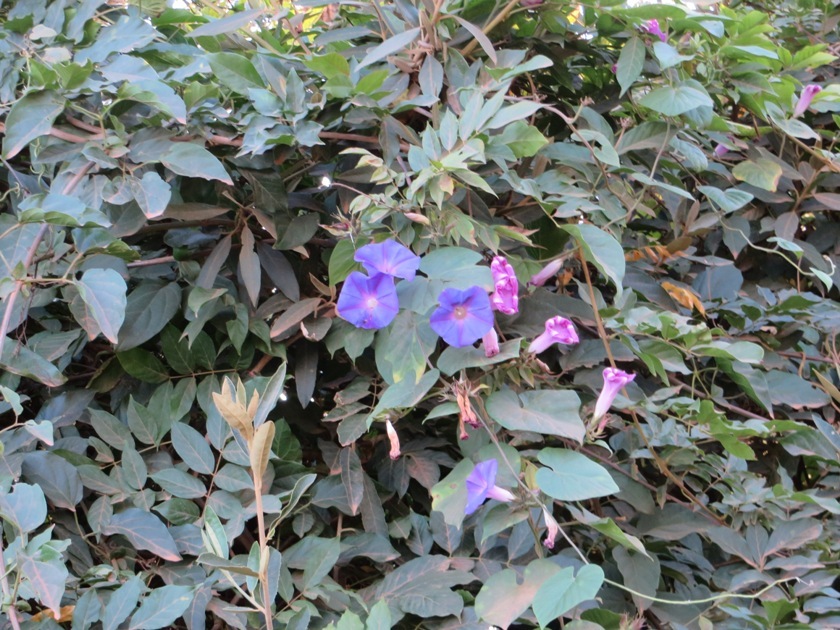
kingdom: Plantae
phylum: Tracheophyta
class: Magnoliopsida
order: Solanales
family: Convolvulaceae
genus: Ipomoea
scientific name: Ipomoea indica
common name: Blue dawnflower
